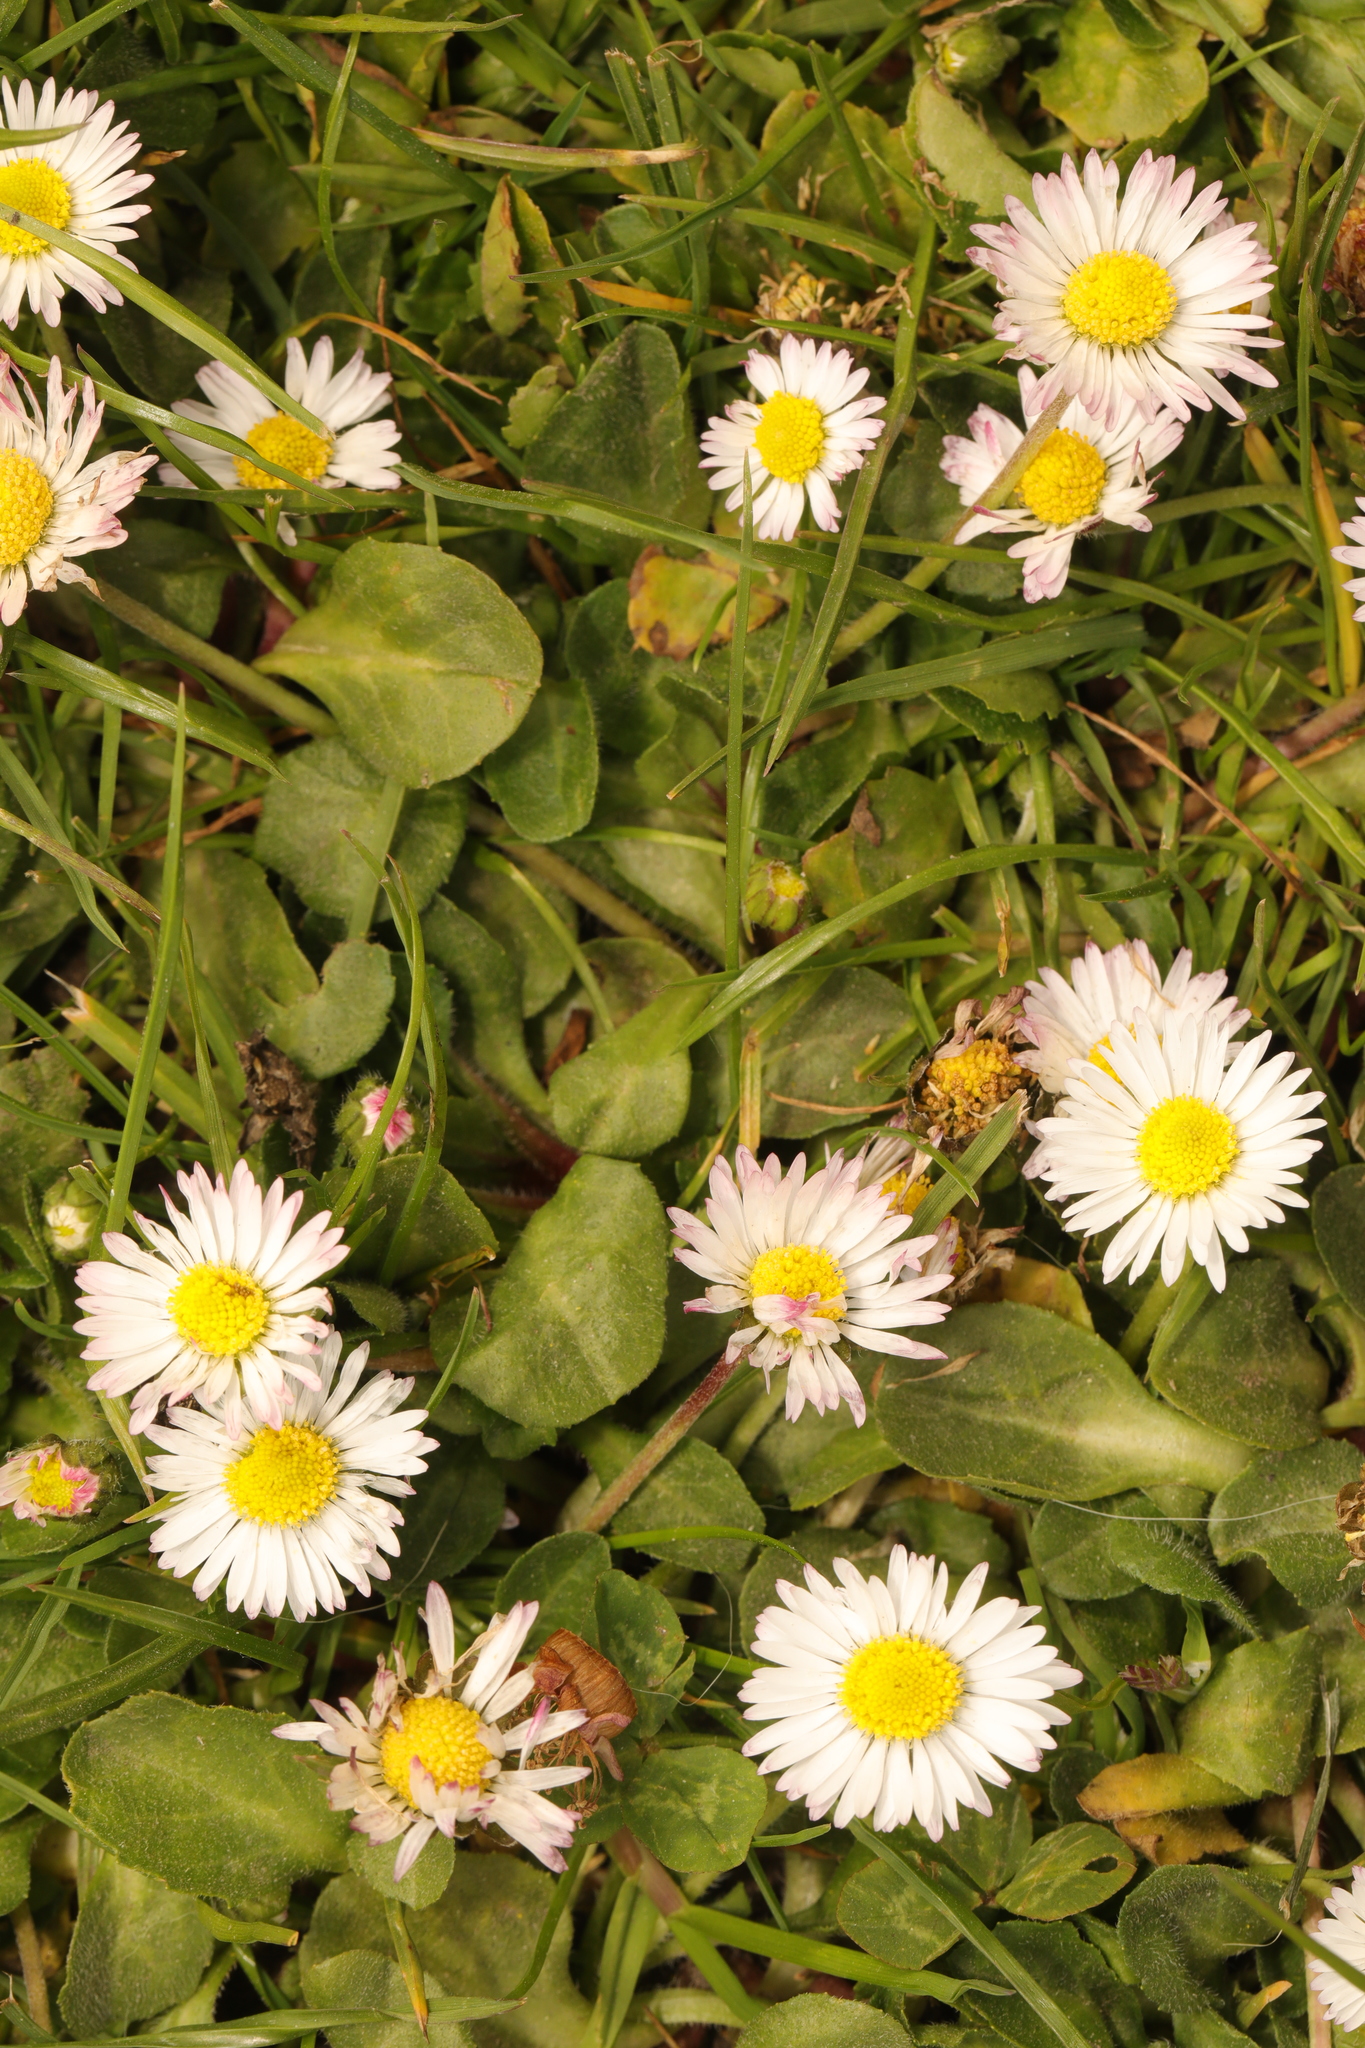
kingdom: Plantae
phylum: Tracheophyta
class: Magnoliopsida
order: Asterales
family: Asteraceae
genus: Bellis
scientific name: Bellis perennis
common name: Lawndaisy
